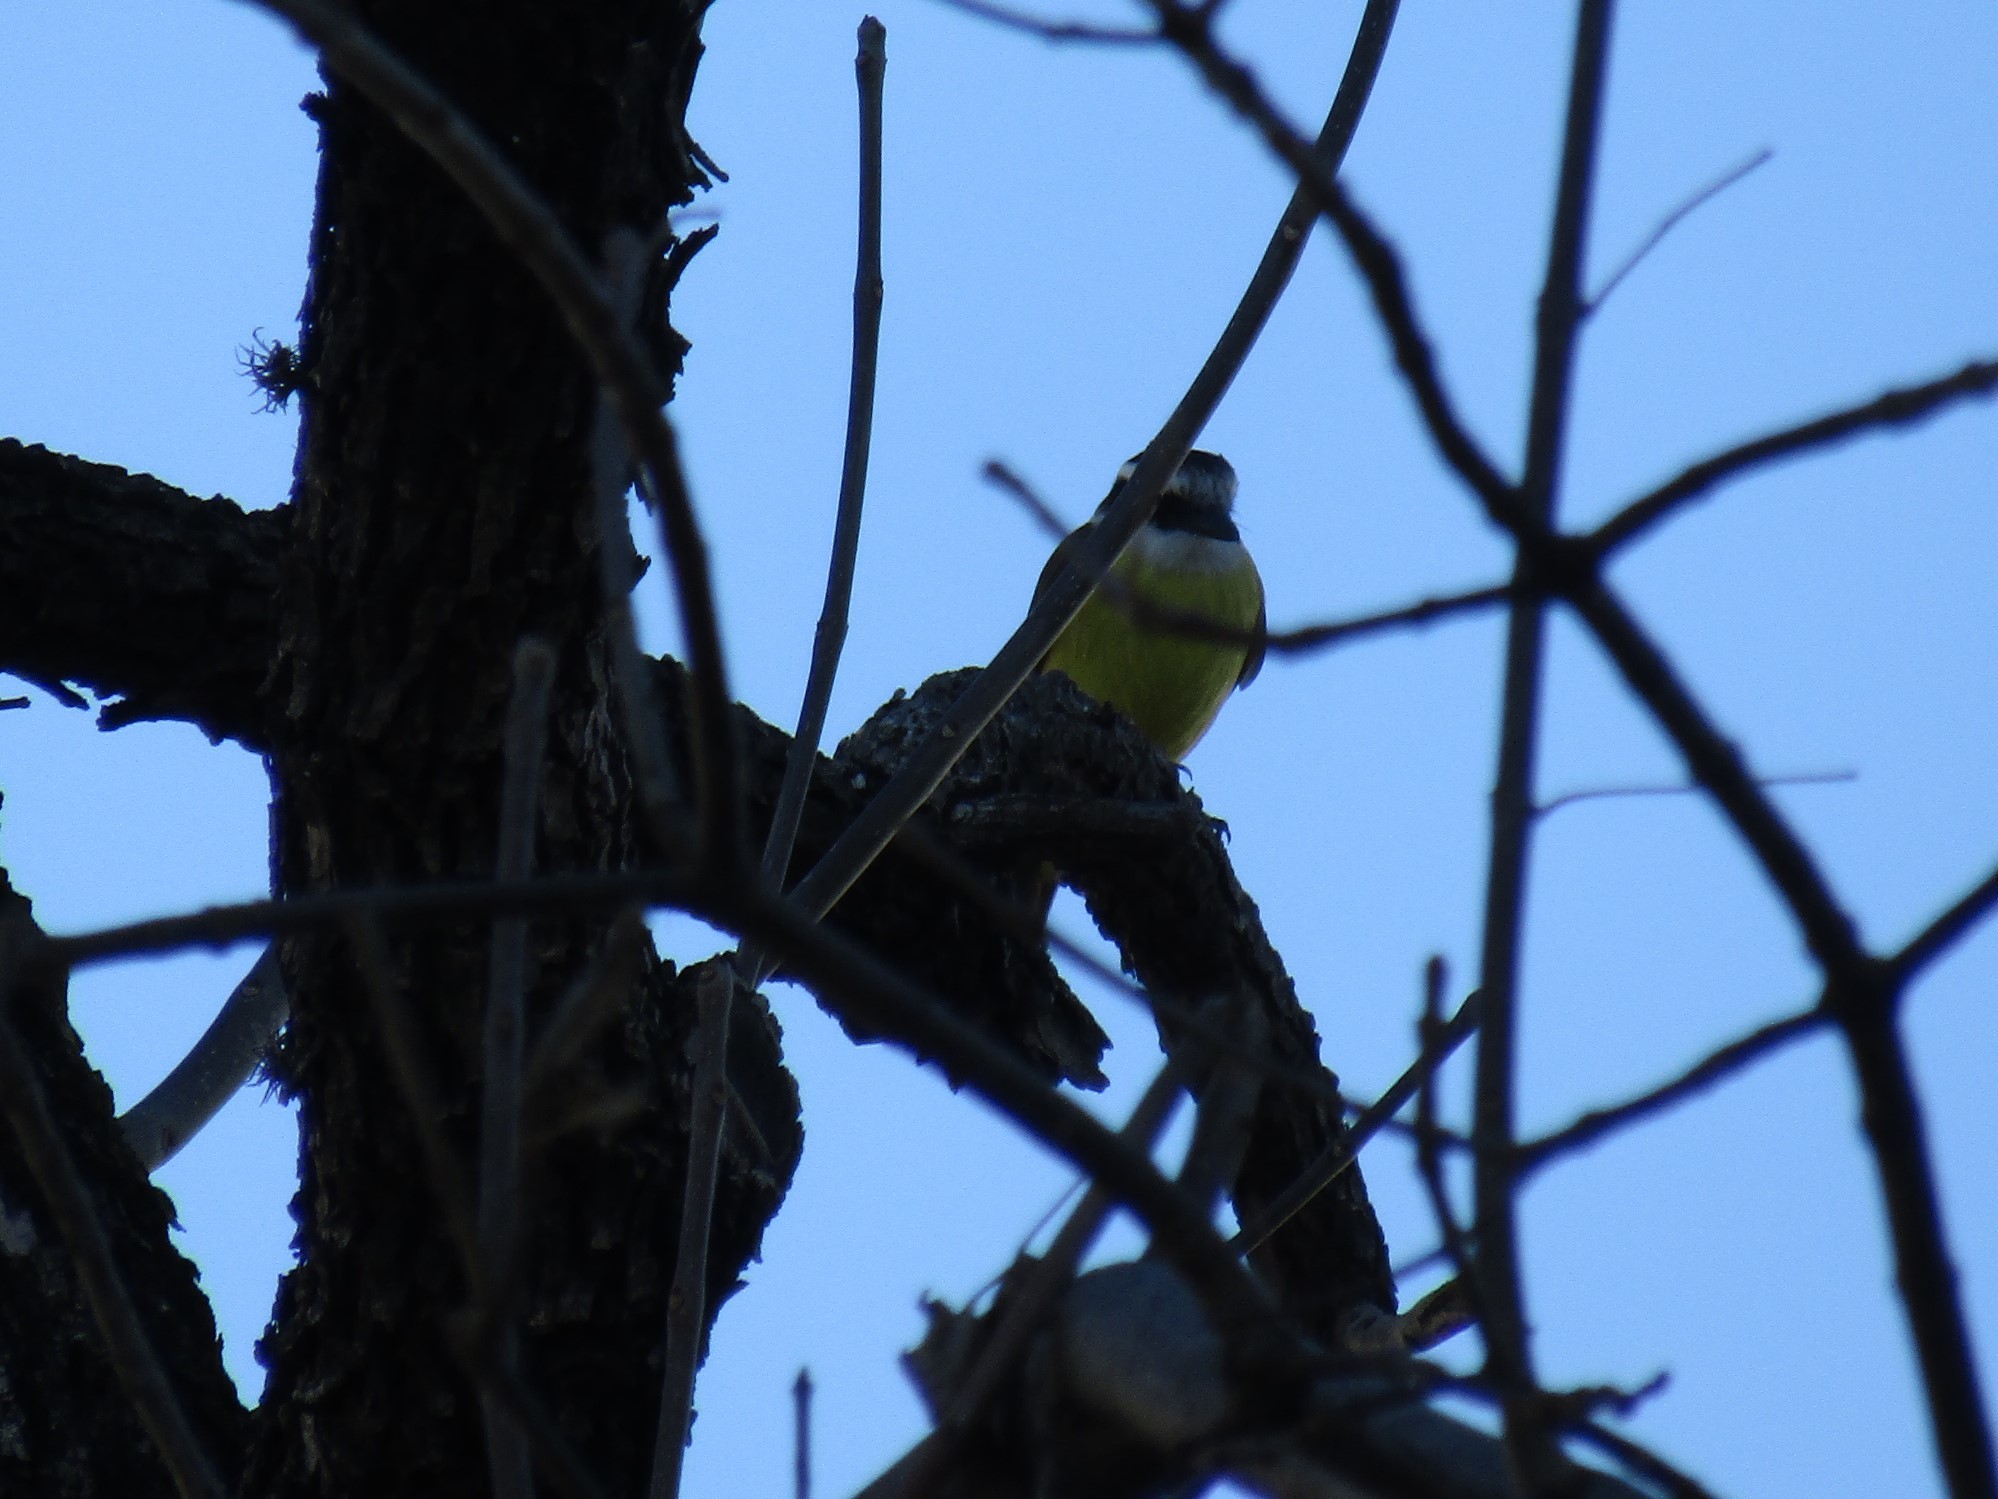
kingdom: Animalia
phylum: Chordata
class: Aves
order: Passeriformes
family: Tyrannidae
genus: Pitangus
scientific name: Pitangus sulphuratus
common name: Great kiskadee
